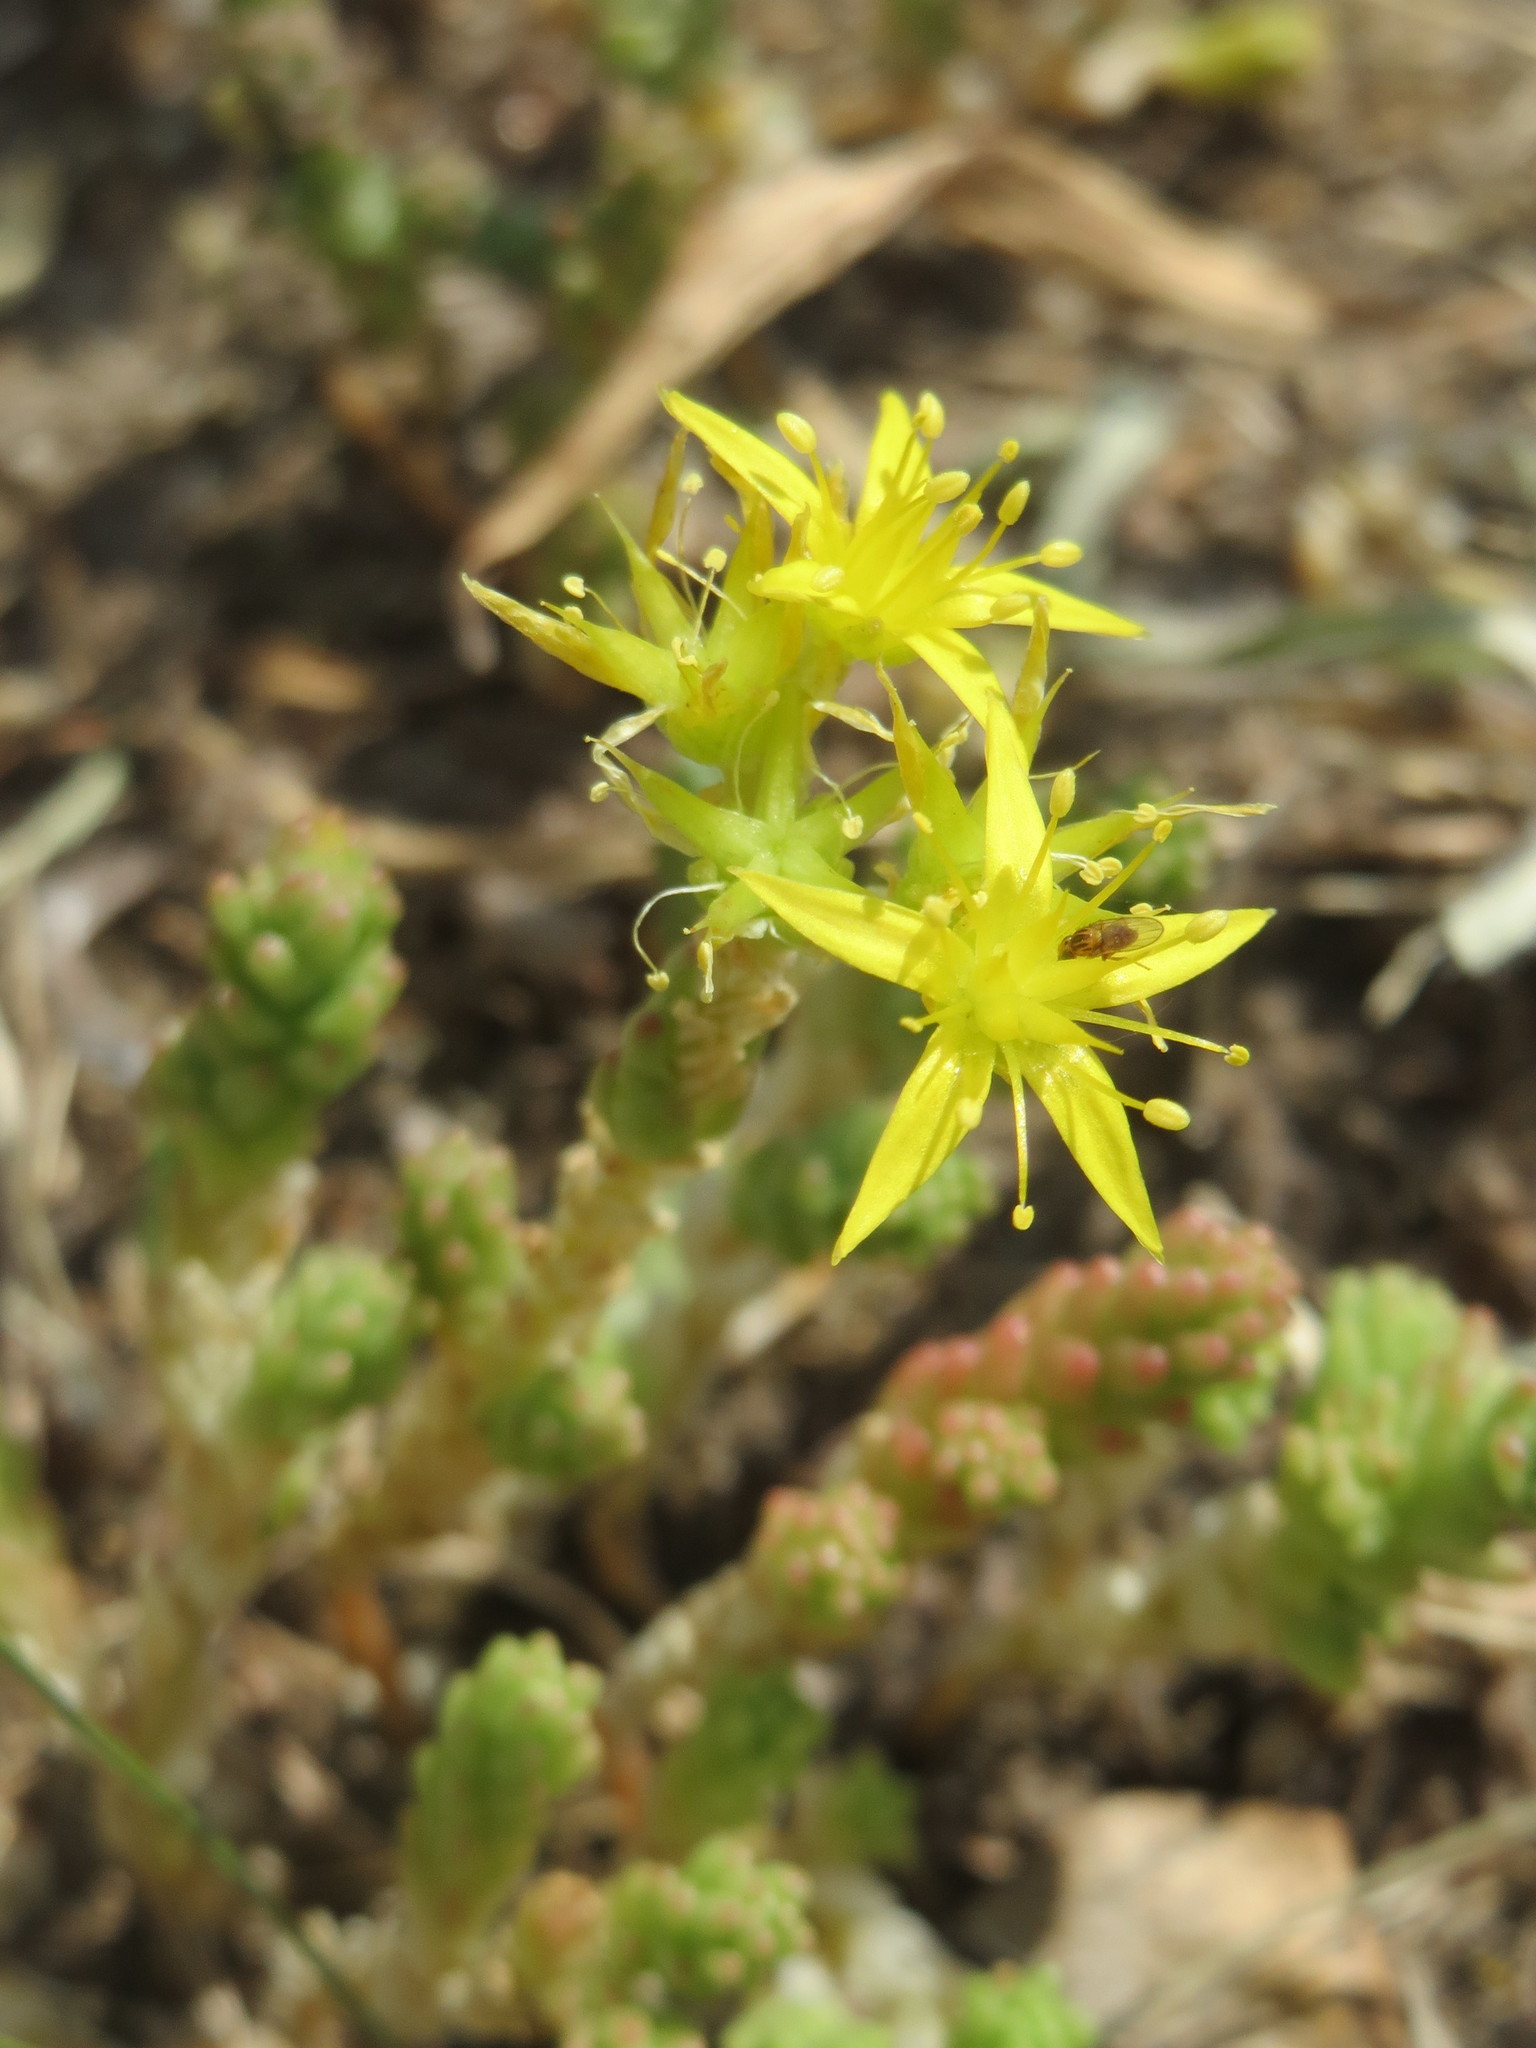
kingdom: Plantae
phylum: Tracheophyta
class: Magnoliopsida
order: Saxifragales
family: Crassulaceae
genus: Sedum
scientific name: Sedum acre
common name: Biting stonecrop
